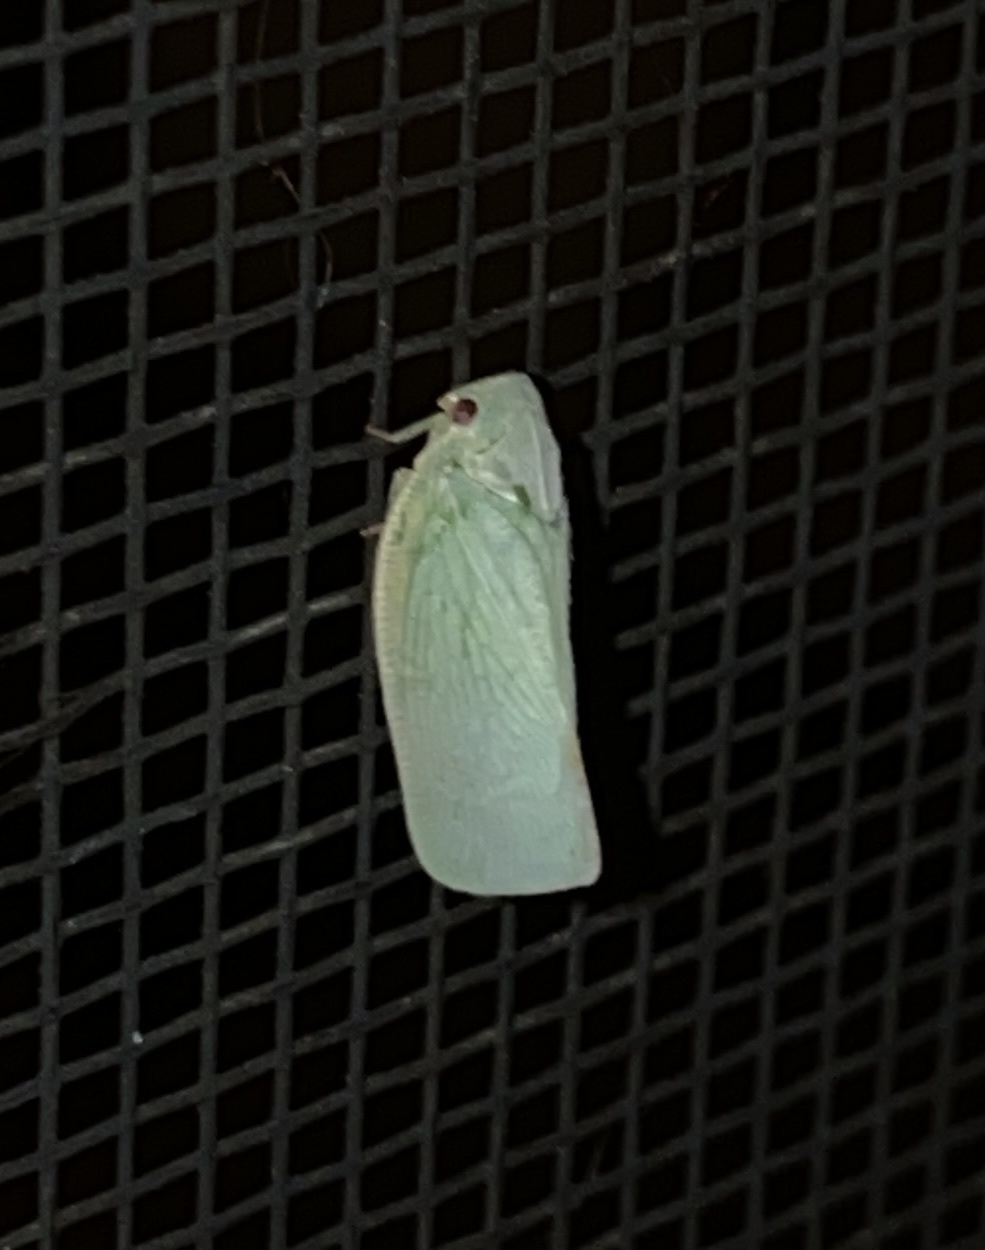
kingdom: Animalia
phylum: Arthropoda
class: Insecta
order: Hemiptera
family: Flatidae
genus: Flatormenis
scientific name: Flatormenis proxima
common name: Northern flatid planthopper
